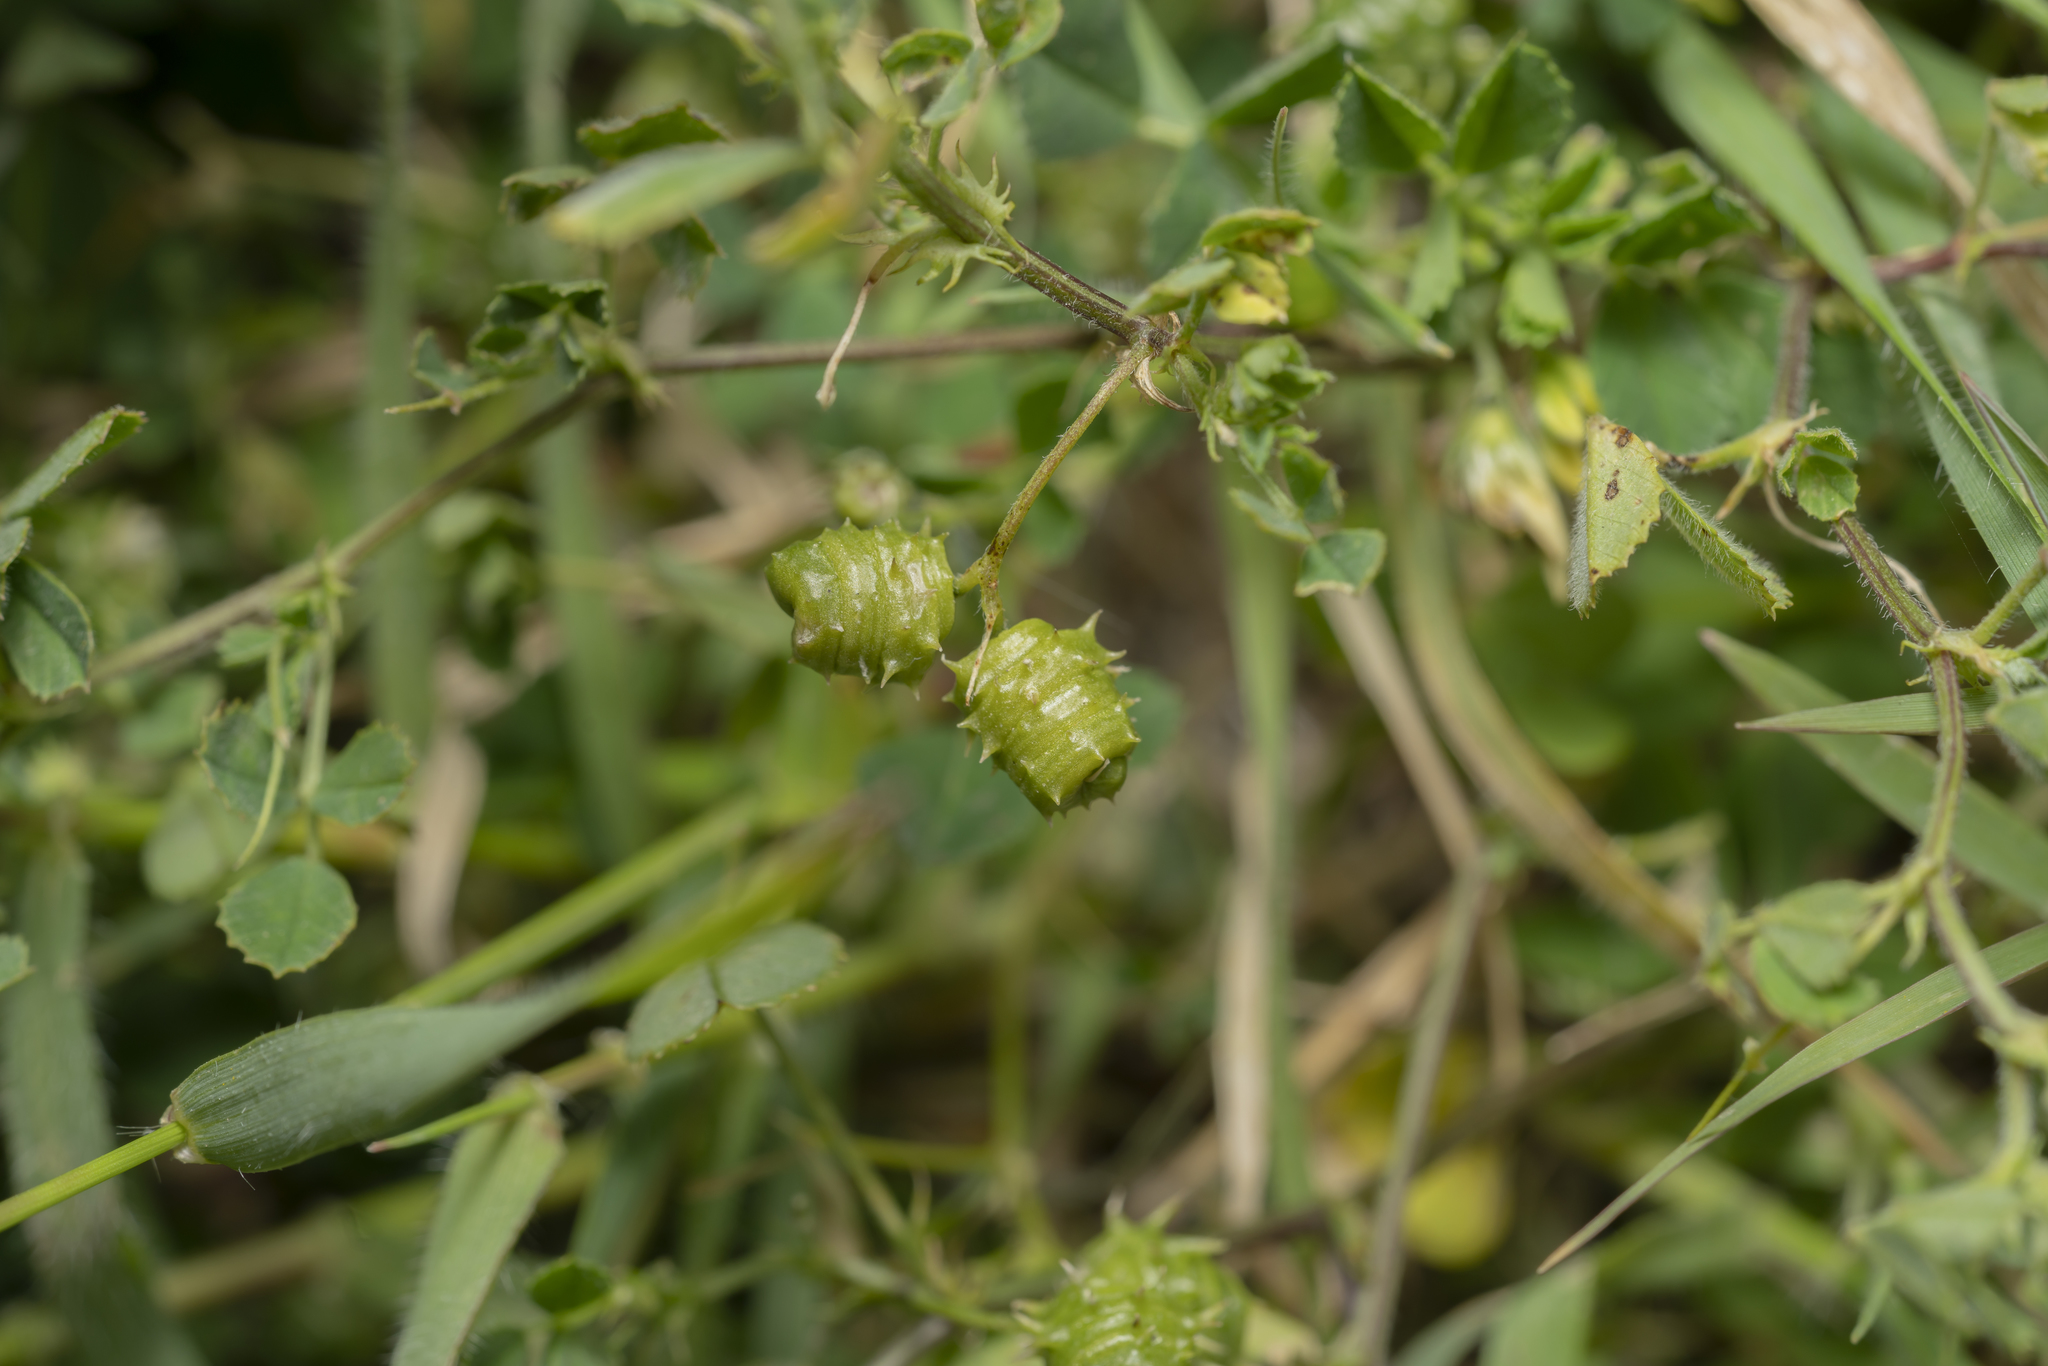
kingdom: Plantae
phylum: Tracheophyta
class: Magnoliopsida
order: Fabales
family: Fabaceae
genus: Medicago
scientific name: Medicago littoralis
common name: Shore medick
